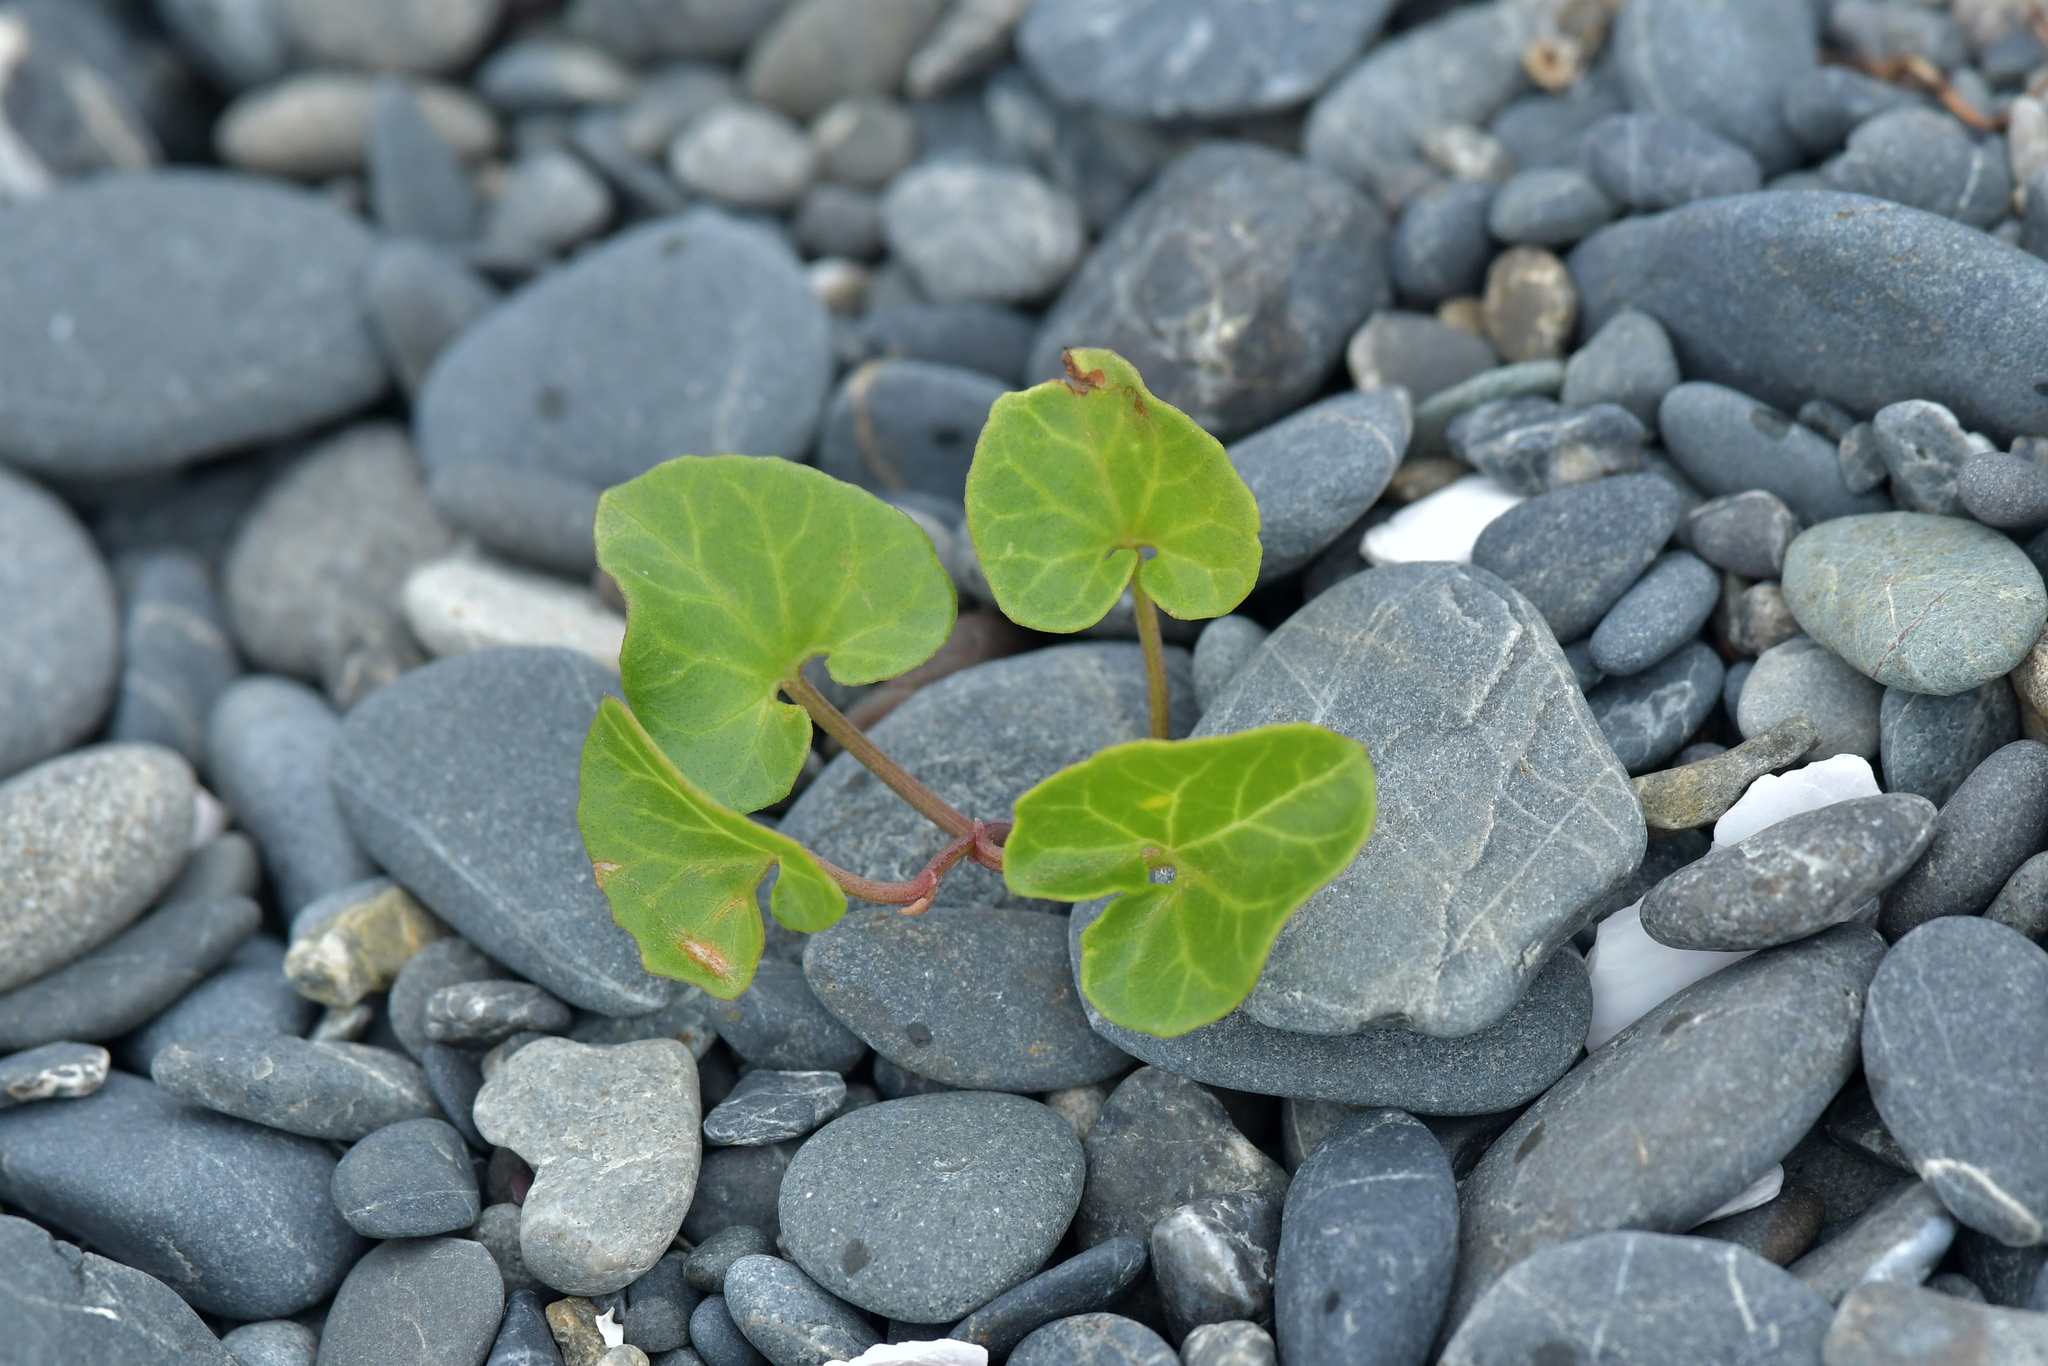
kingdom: Plantae
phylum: Tracheophyta
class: Magnoliopsida
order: Solanales
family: Convolvulaceae
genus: Calystegia
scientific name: Calystegia soldanella
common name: Sea bindweed
